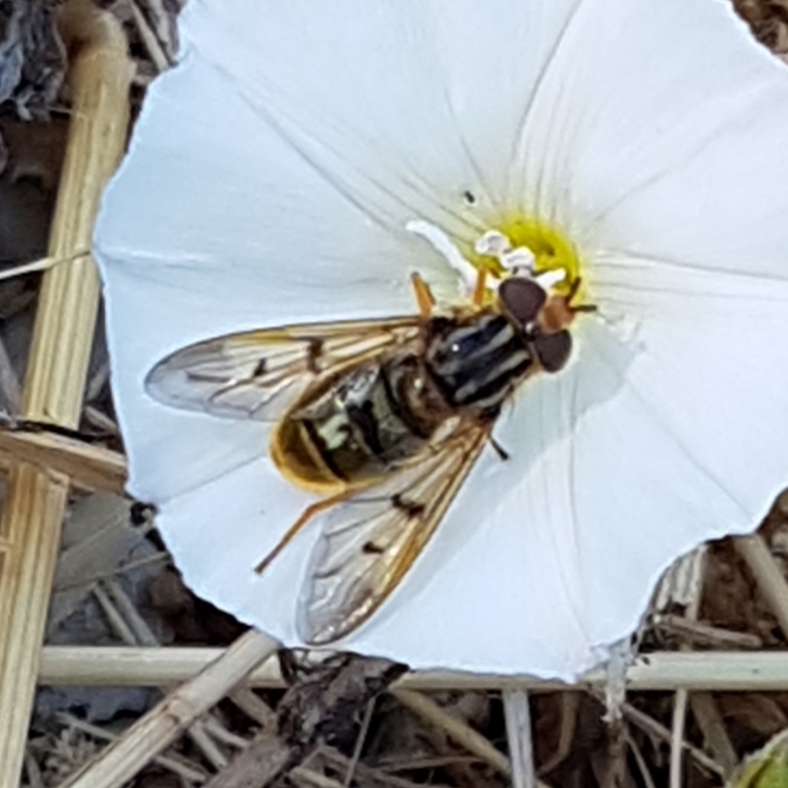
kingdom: Animalia
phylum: Arthropoda
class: Insecta
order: Diptera
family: Syrphidae
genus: Ferdinandea
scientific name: Ferdinandea cuprea
